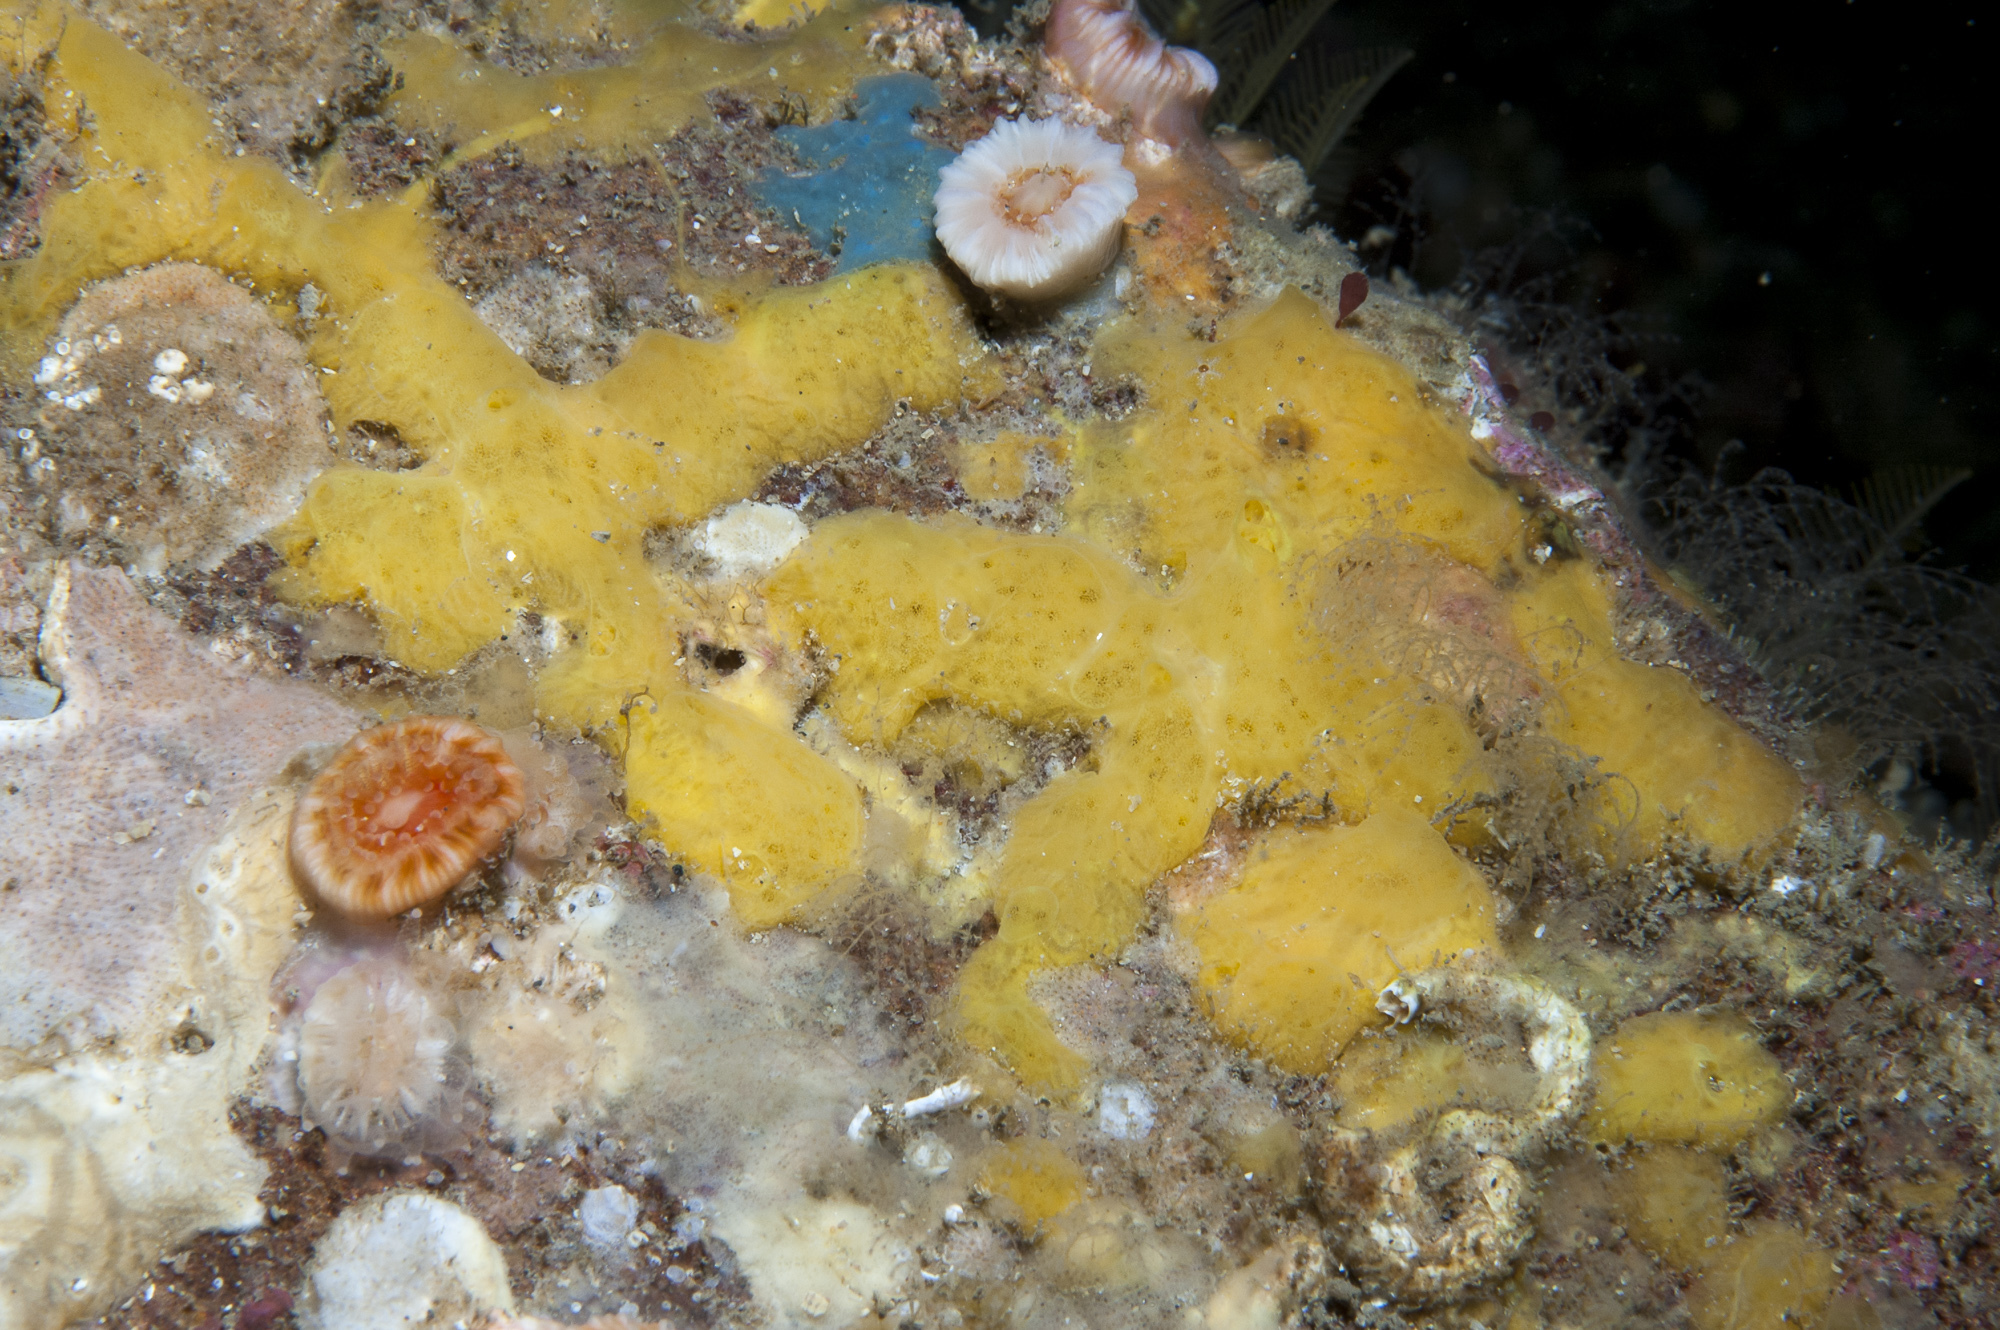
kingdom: Animalia
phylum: Porifera
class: Demospongiae
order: Poecilosclerida
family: Hymedesmiidae
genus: Hymedesmia
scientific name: Hymedesmia rathlinia
